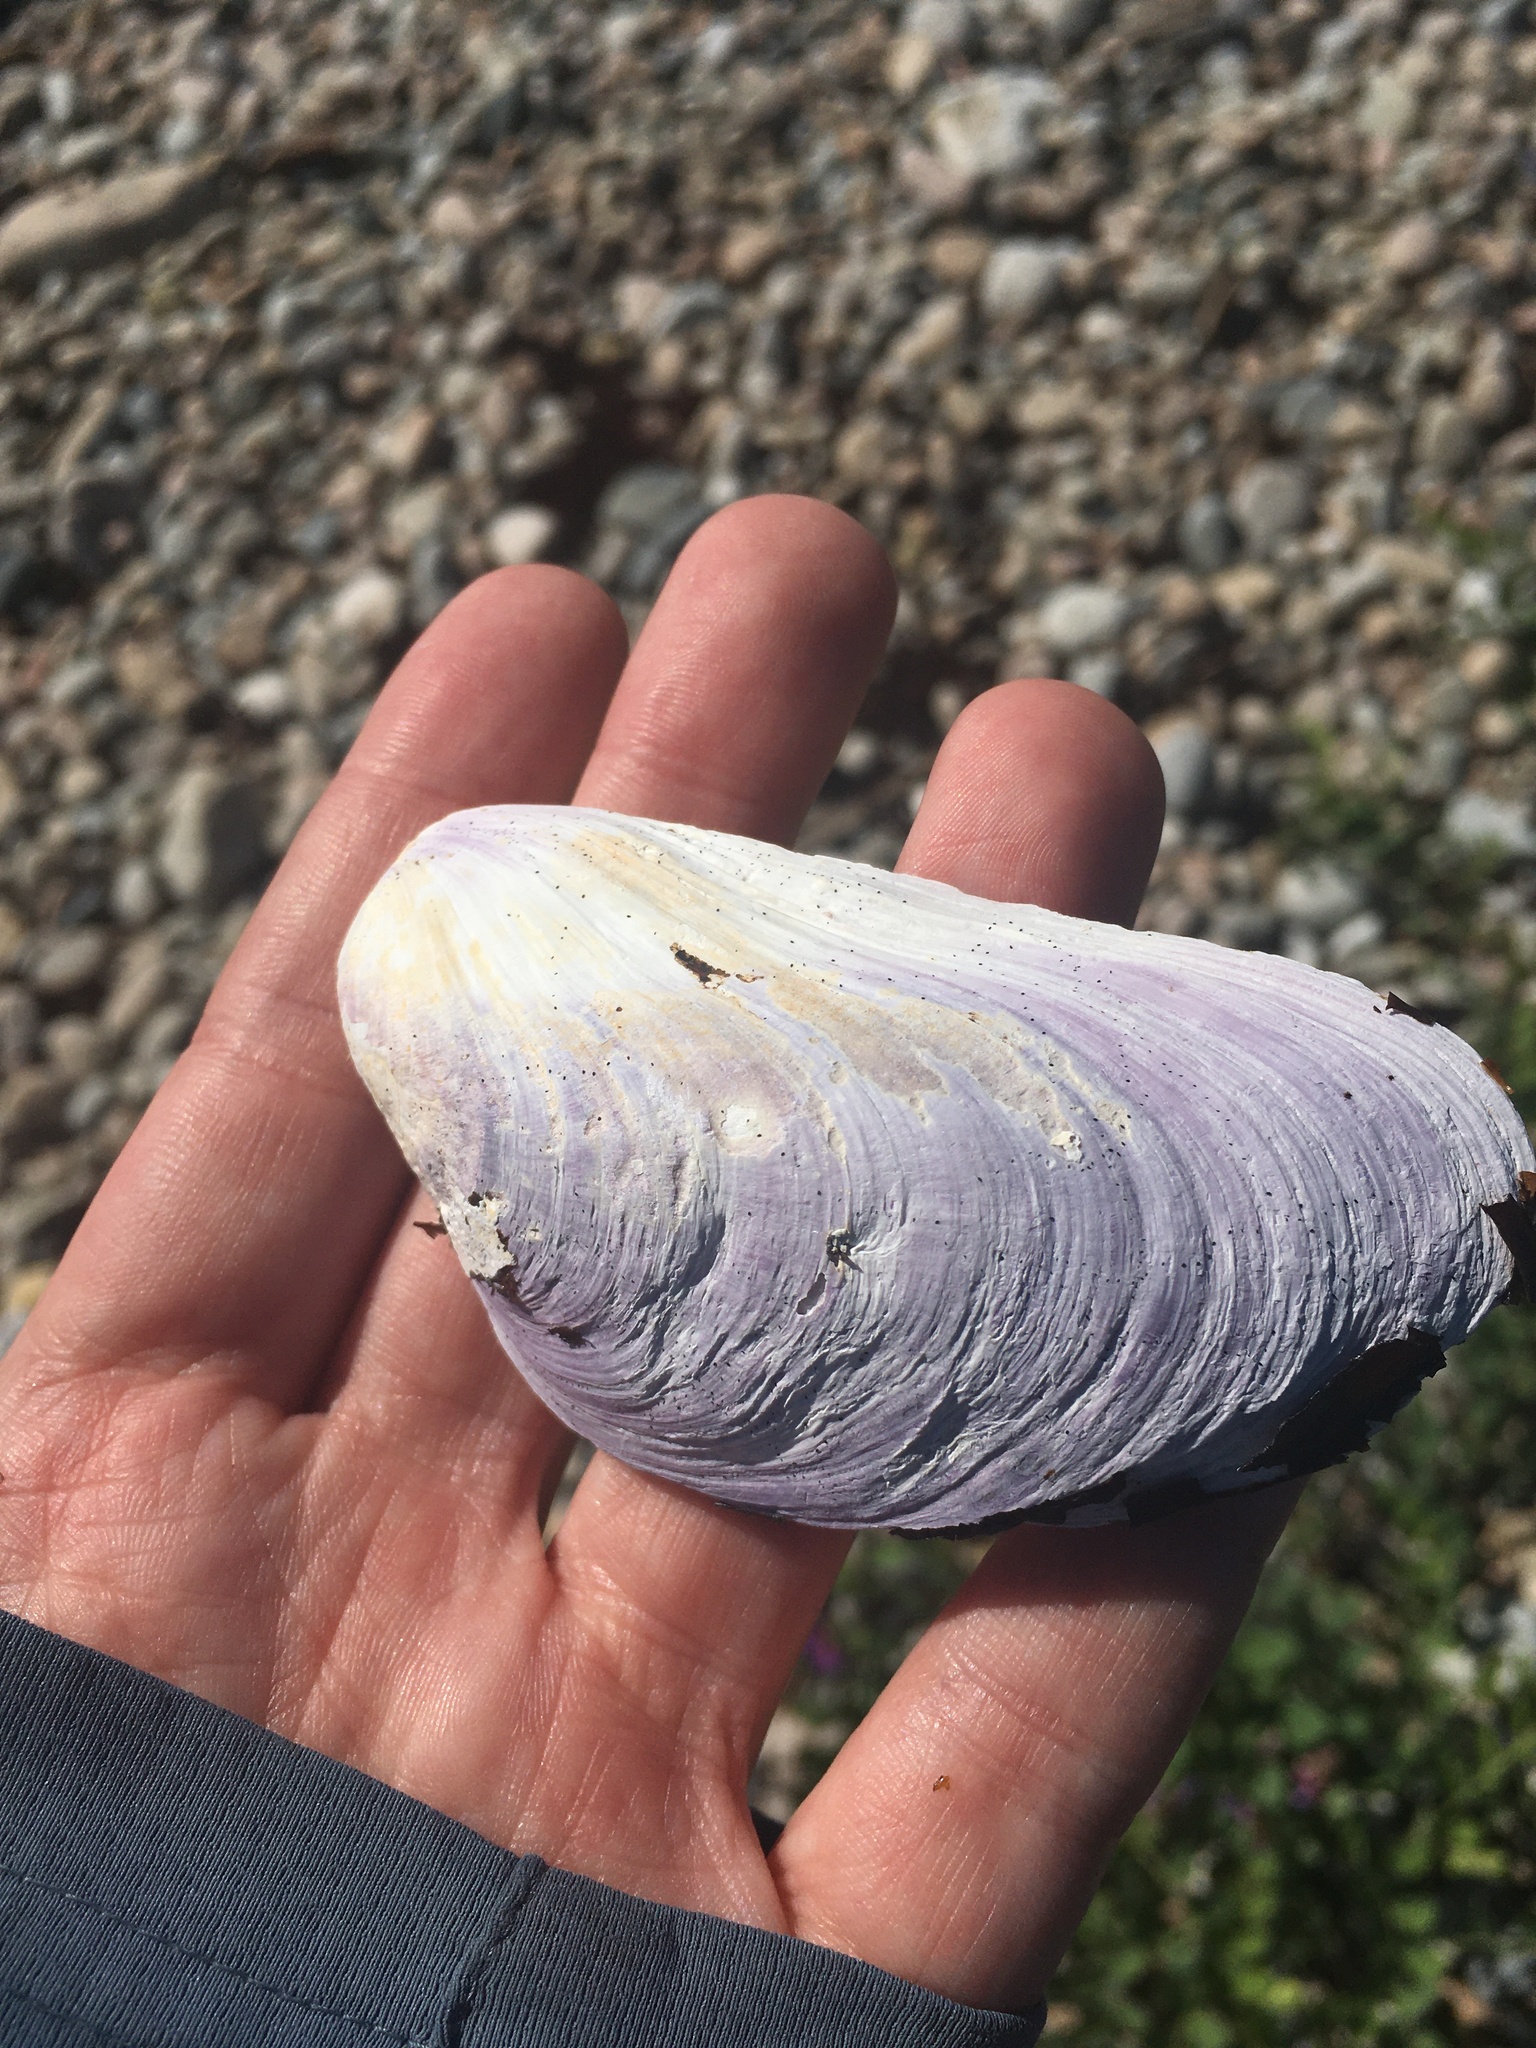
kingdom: Animalia
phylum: Mollusca
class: Bivalvia
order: Mytilida
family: Mytilidae
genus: Modiolus
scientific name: Modiolus modiolus
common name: Horse-mussel
